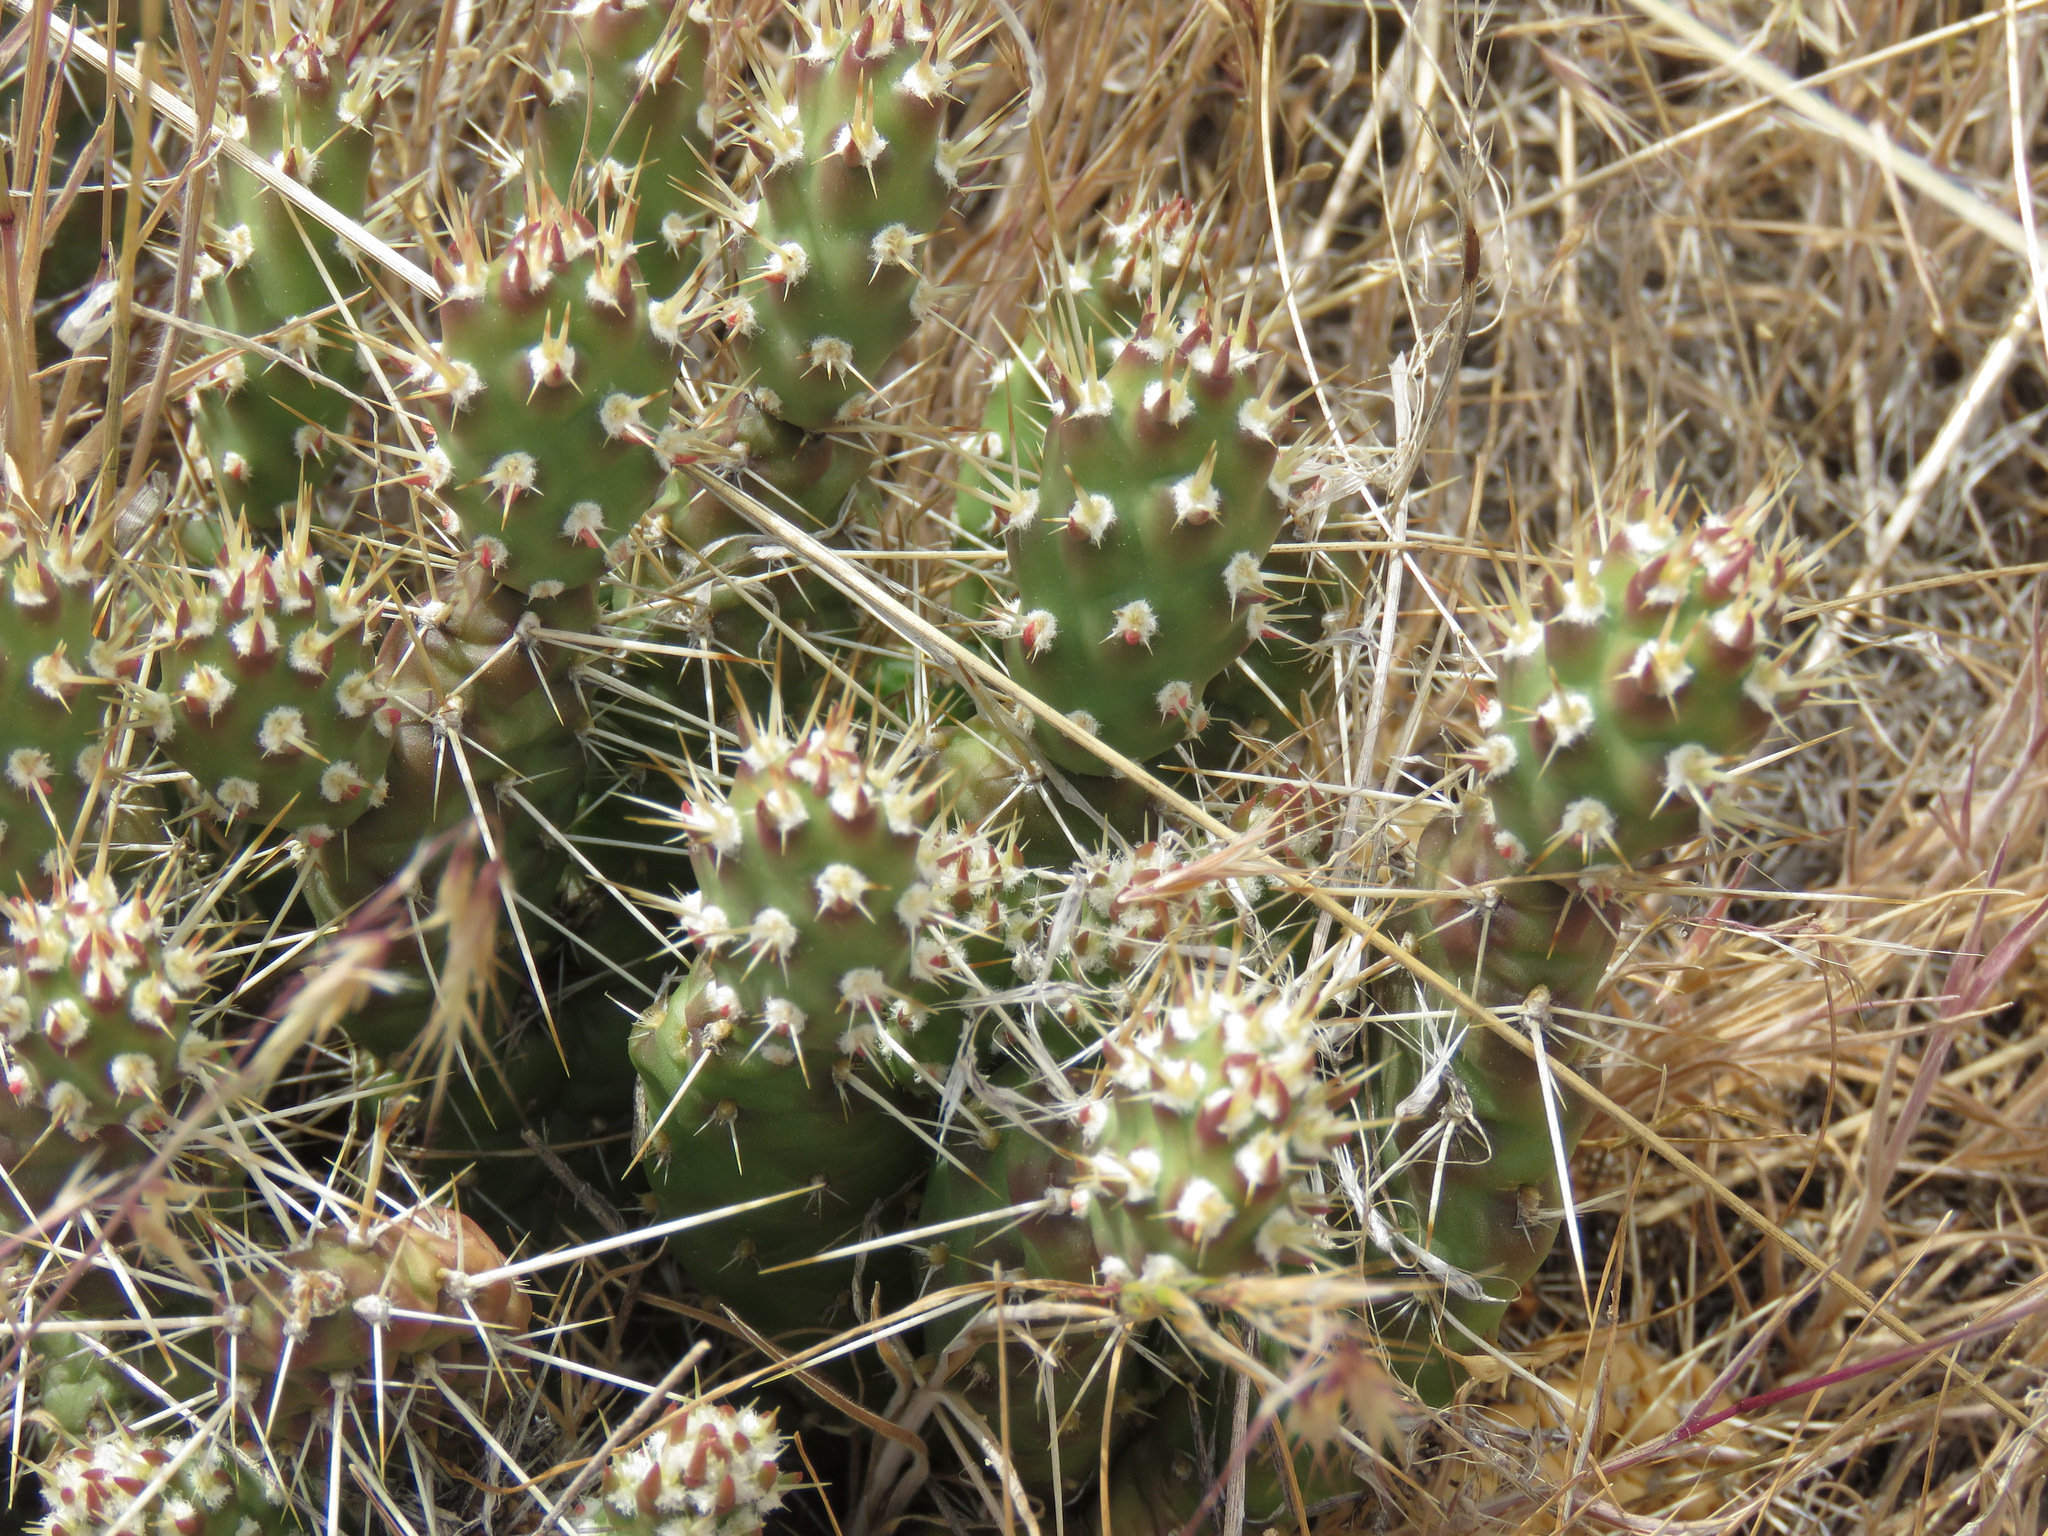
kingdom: Plantae
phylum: Tracheophyta
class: Magnoliopsida
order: Caryophyllales
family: Cactaceae
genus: Opuntia
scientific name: Opuntia fragilis
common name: Brittle cactus
